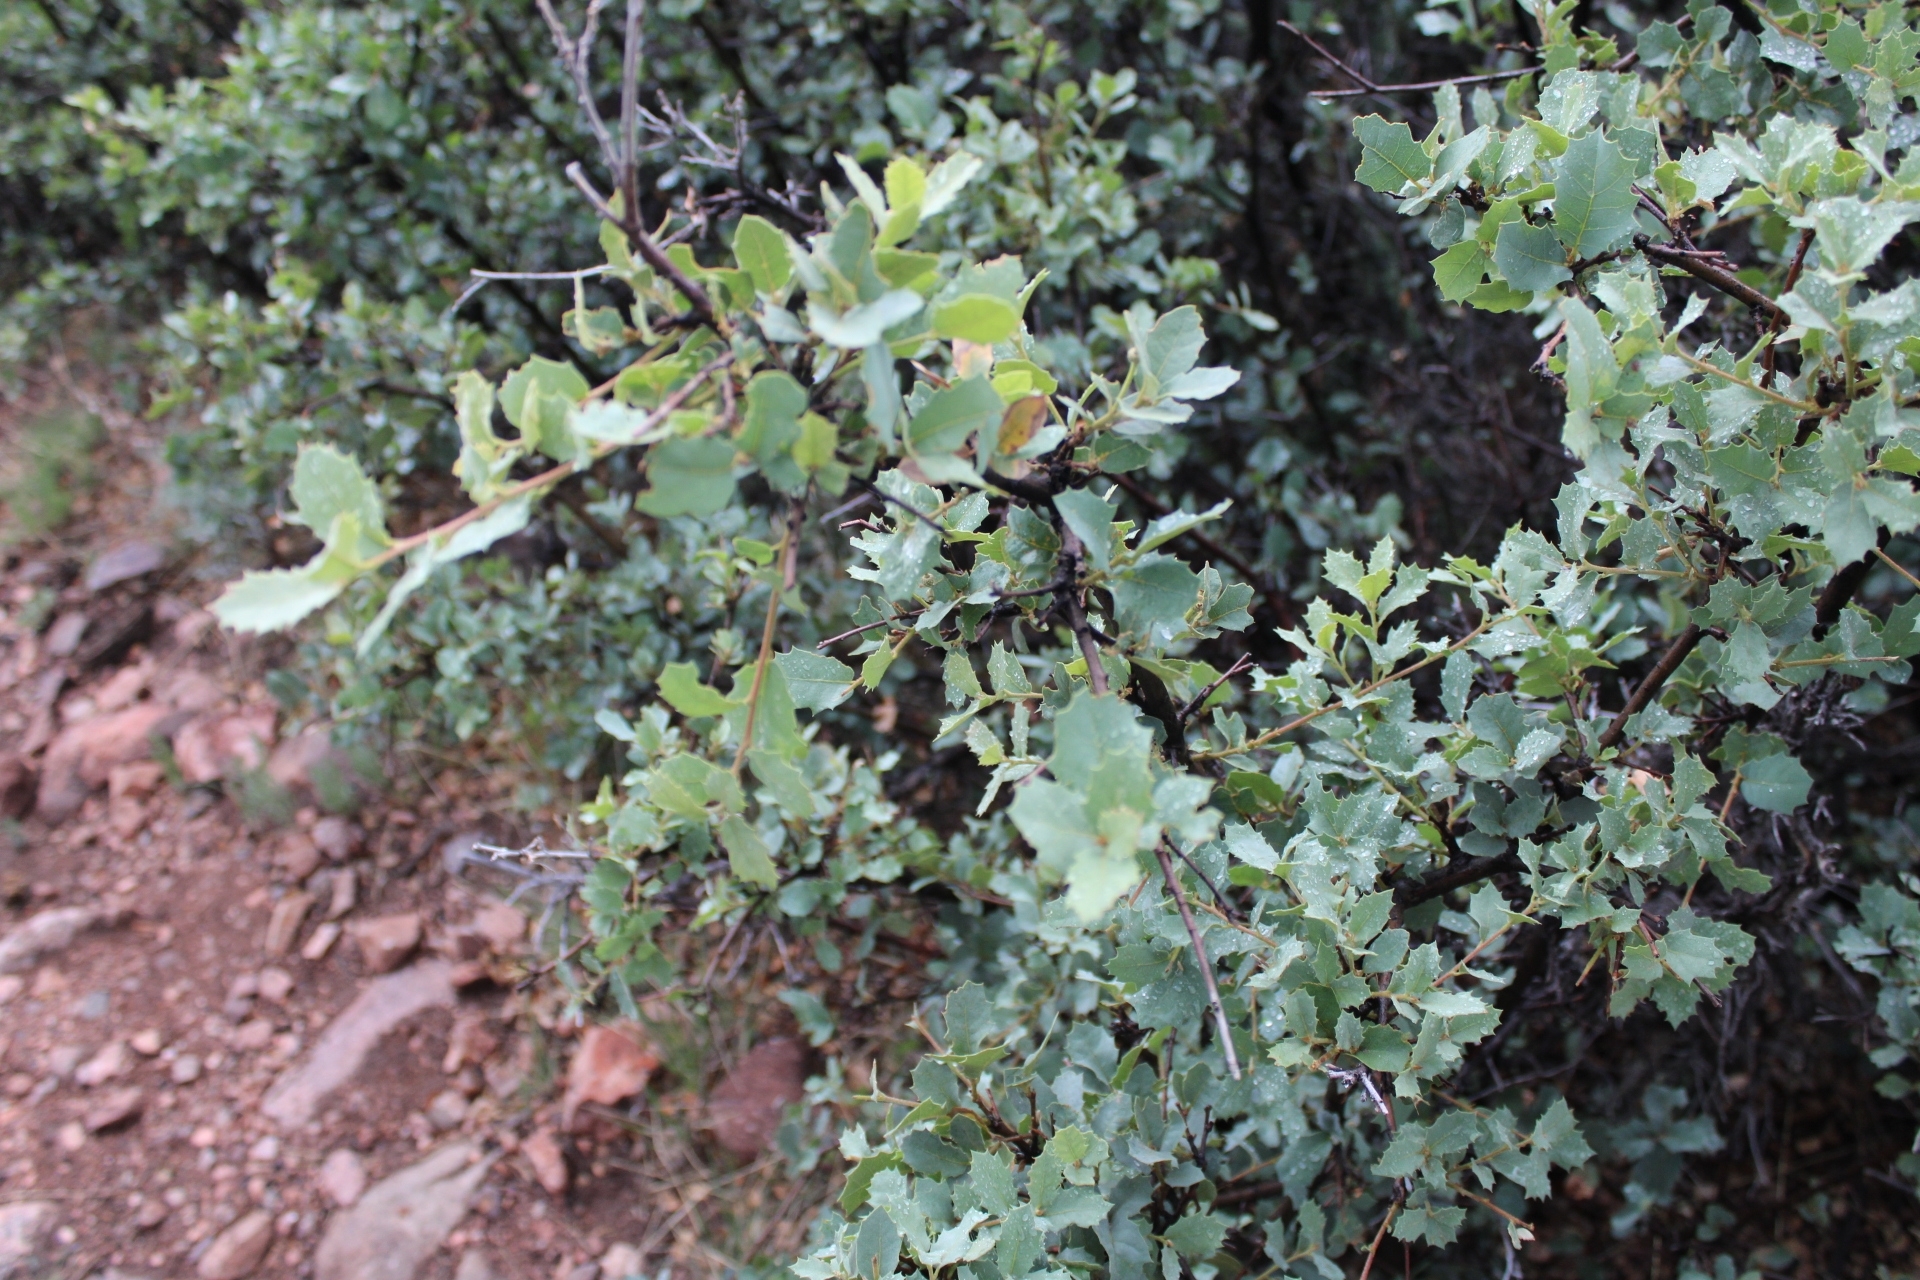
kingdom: Plantae
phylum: Tracheophyta
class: Magnoliopsida
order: Fagales
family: Fagaceae
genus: Quercus
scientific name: Quercus turbinella
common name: Sonoran scrub oak
